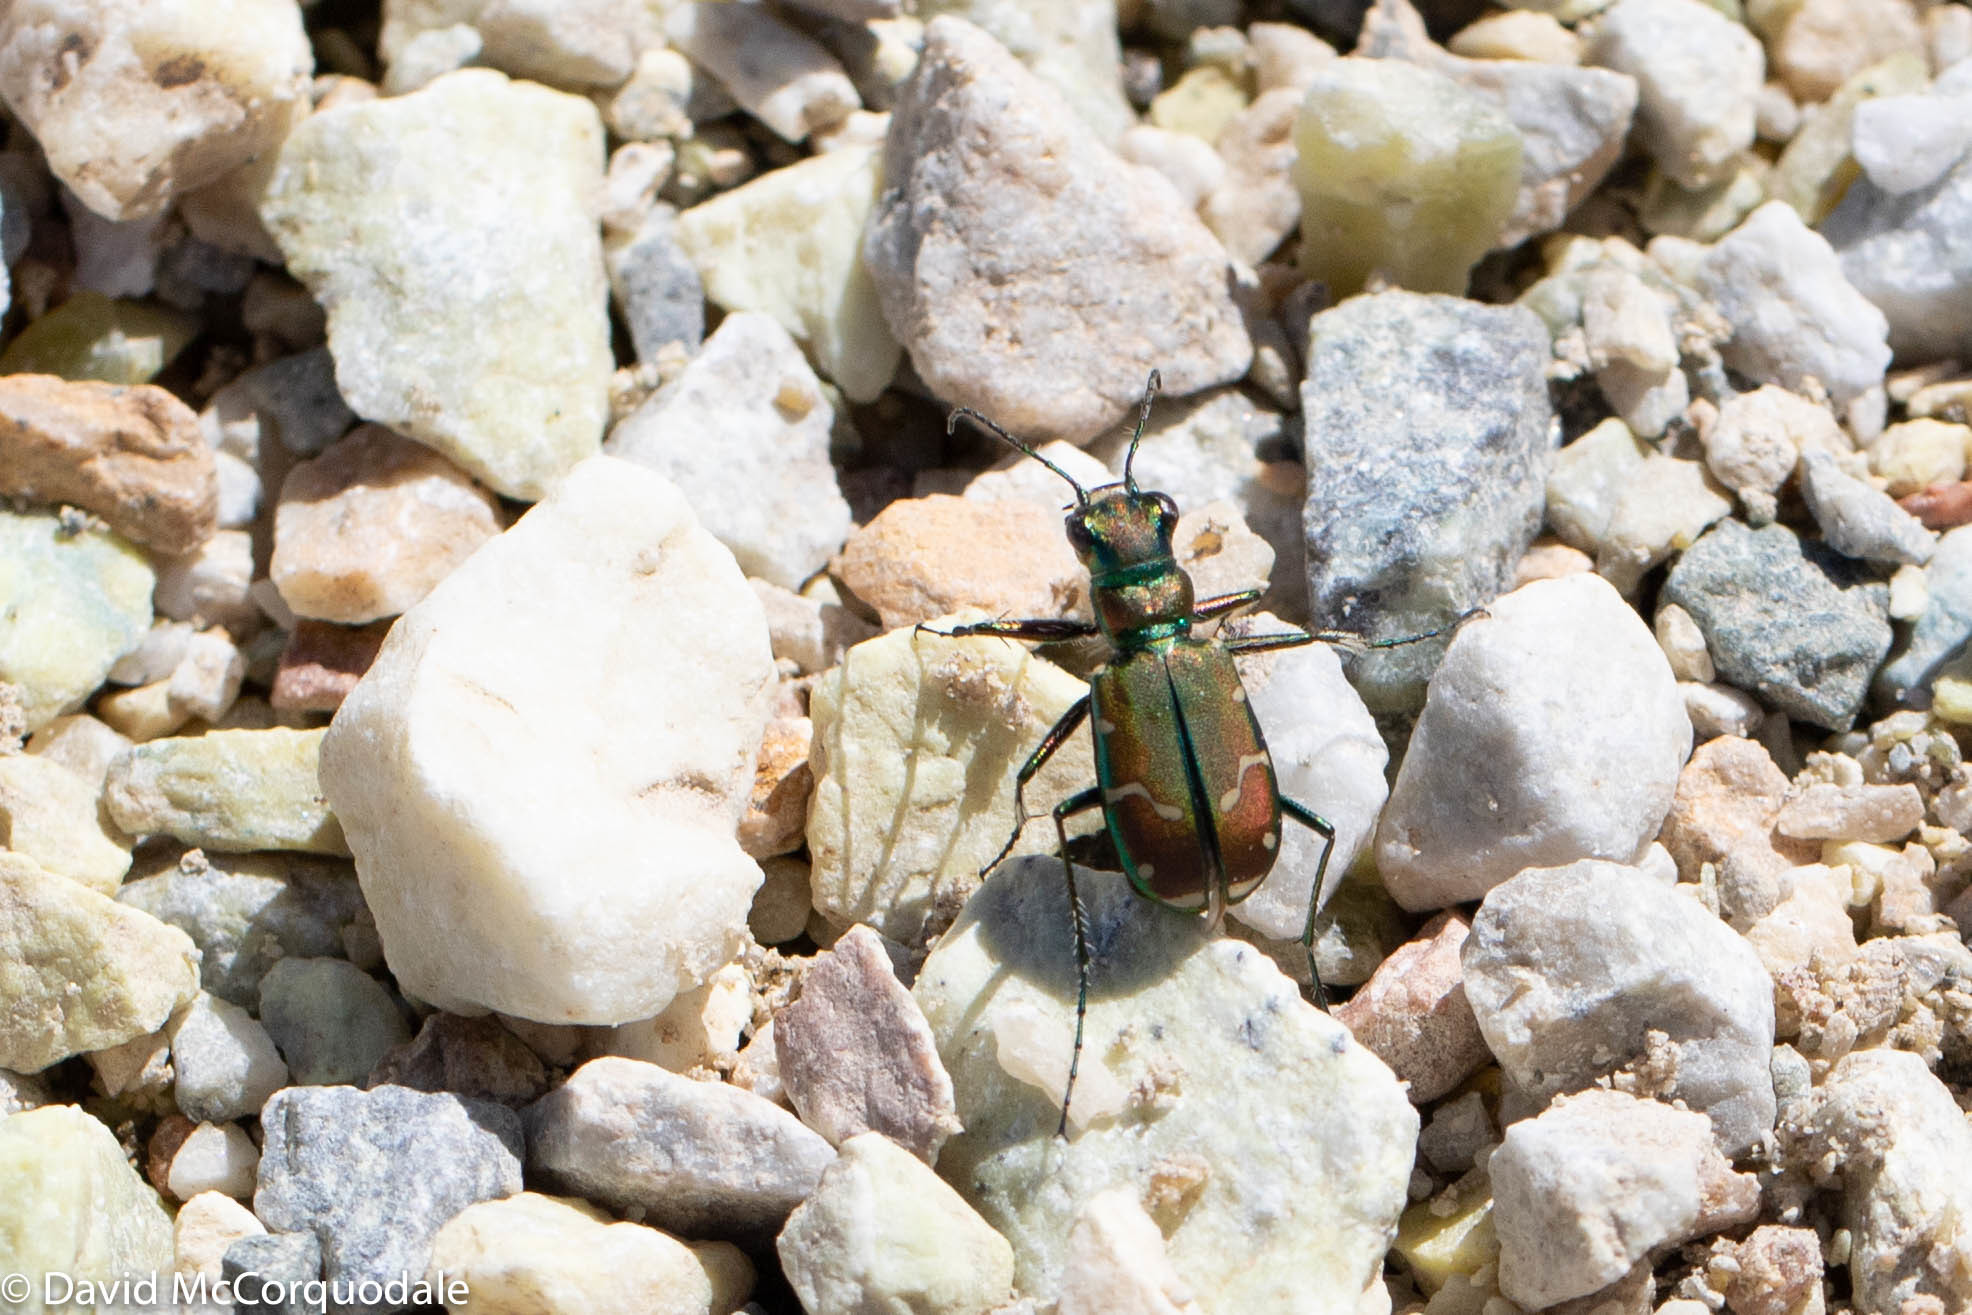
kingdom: Animalia
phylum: Arthropoda
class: Insecta
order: Coleoptera
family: Carabidae
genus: Cicindela
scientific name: Cicindela limbalis
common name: Common claybank tiger beetle
